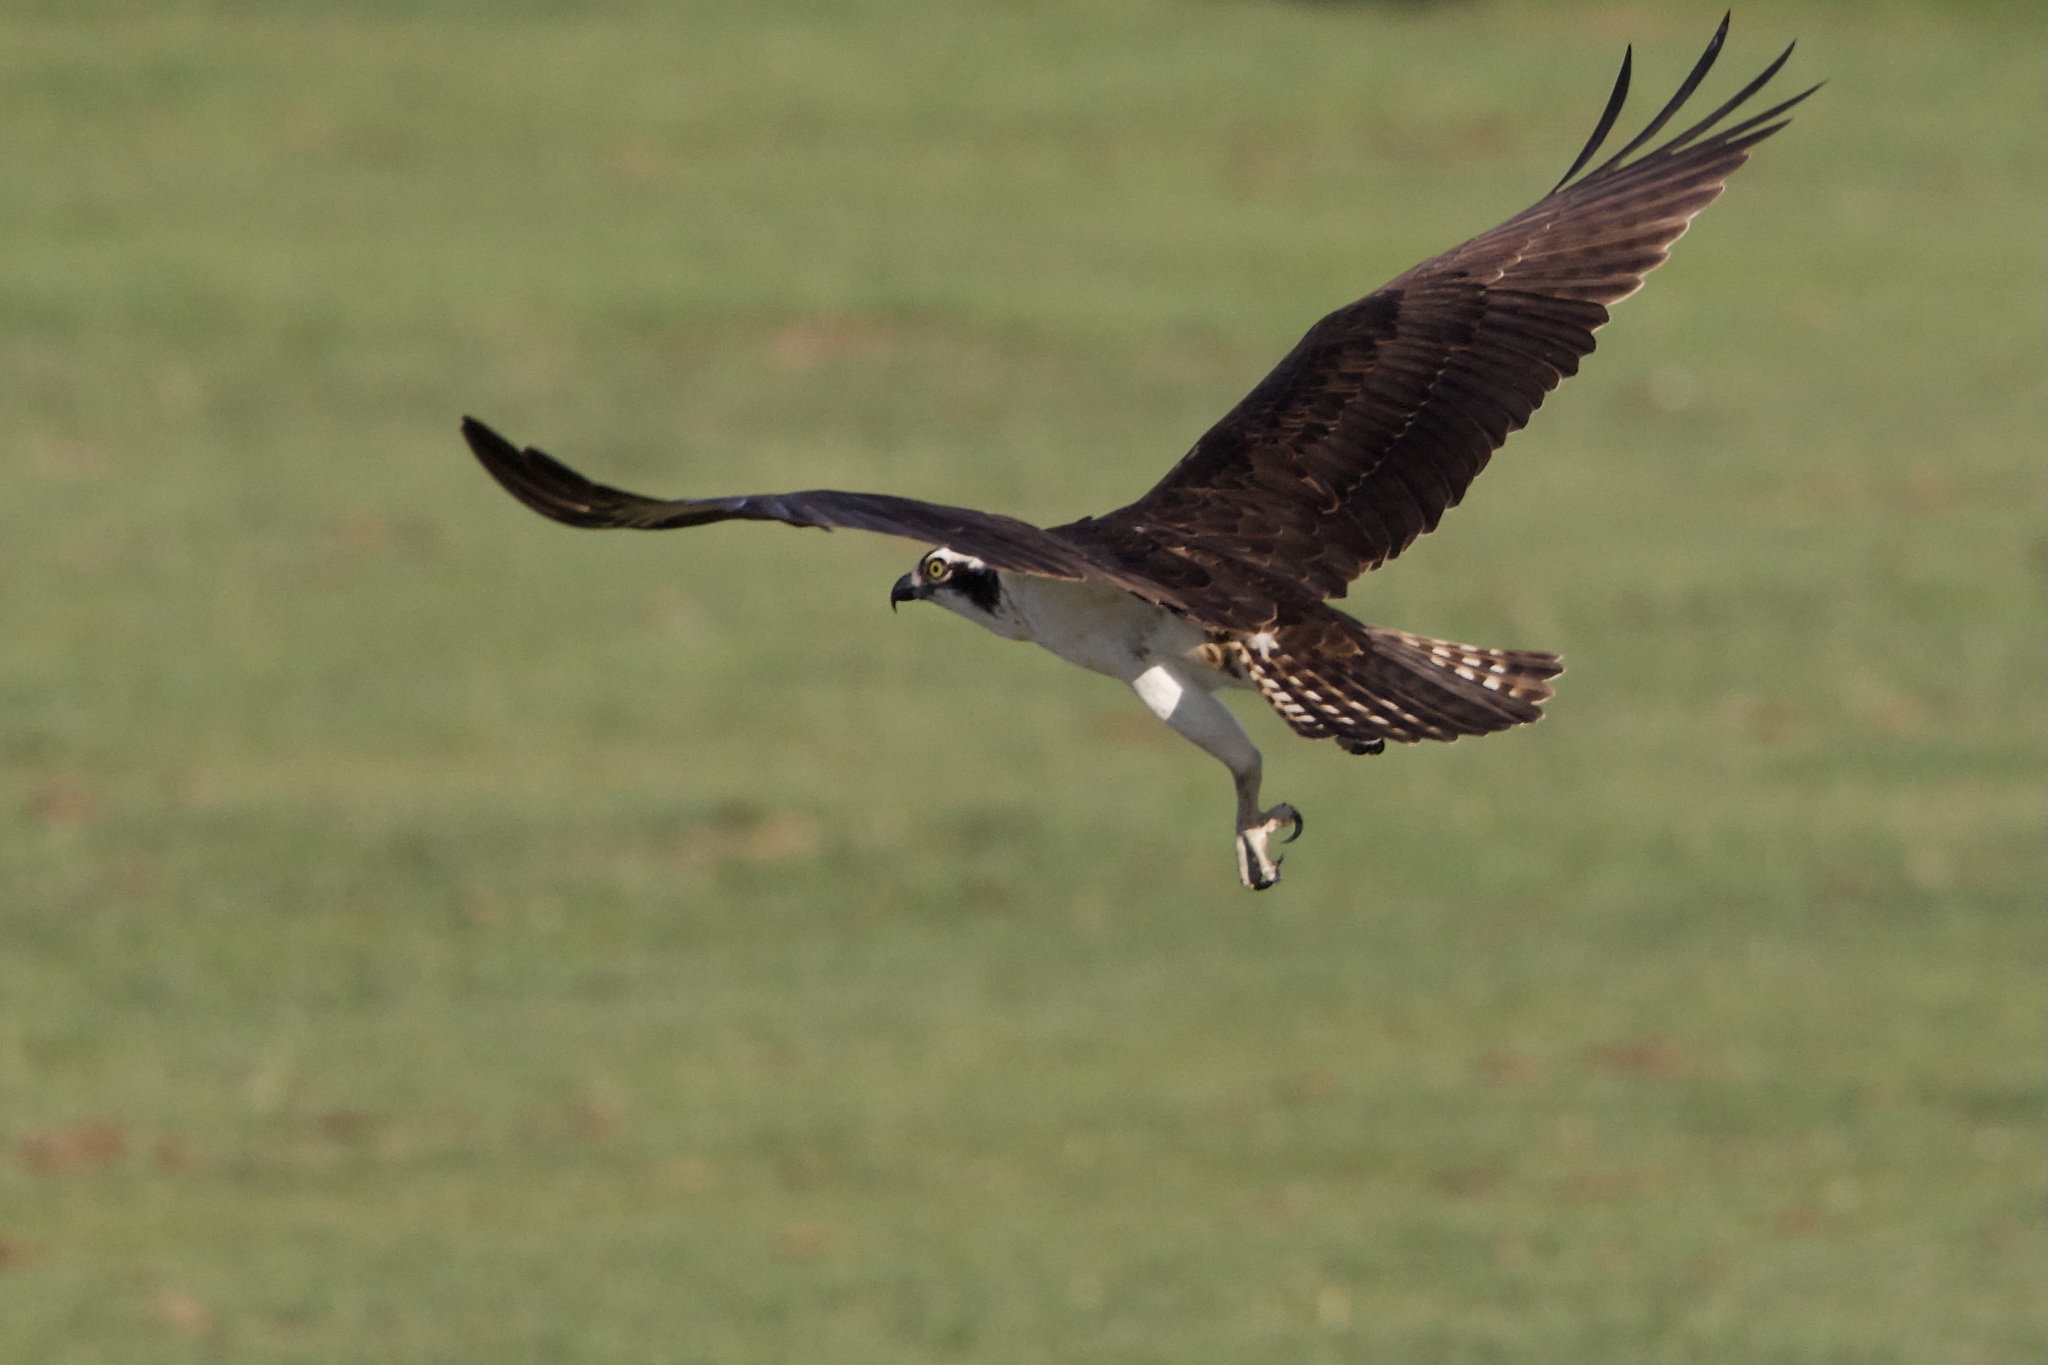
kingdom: Animalia
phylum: Chordata
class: Aves
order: Accipitriformes
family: Pandionidae
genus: Pandion
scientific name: Pandion haliaetus
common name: Osprey
